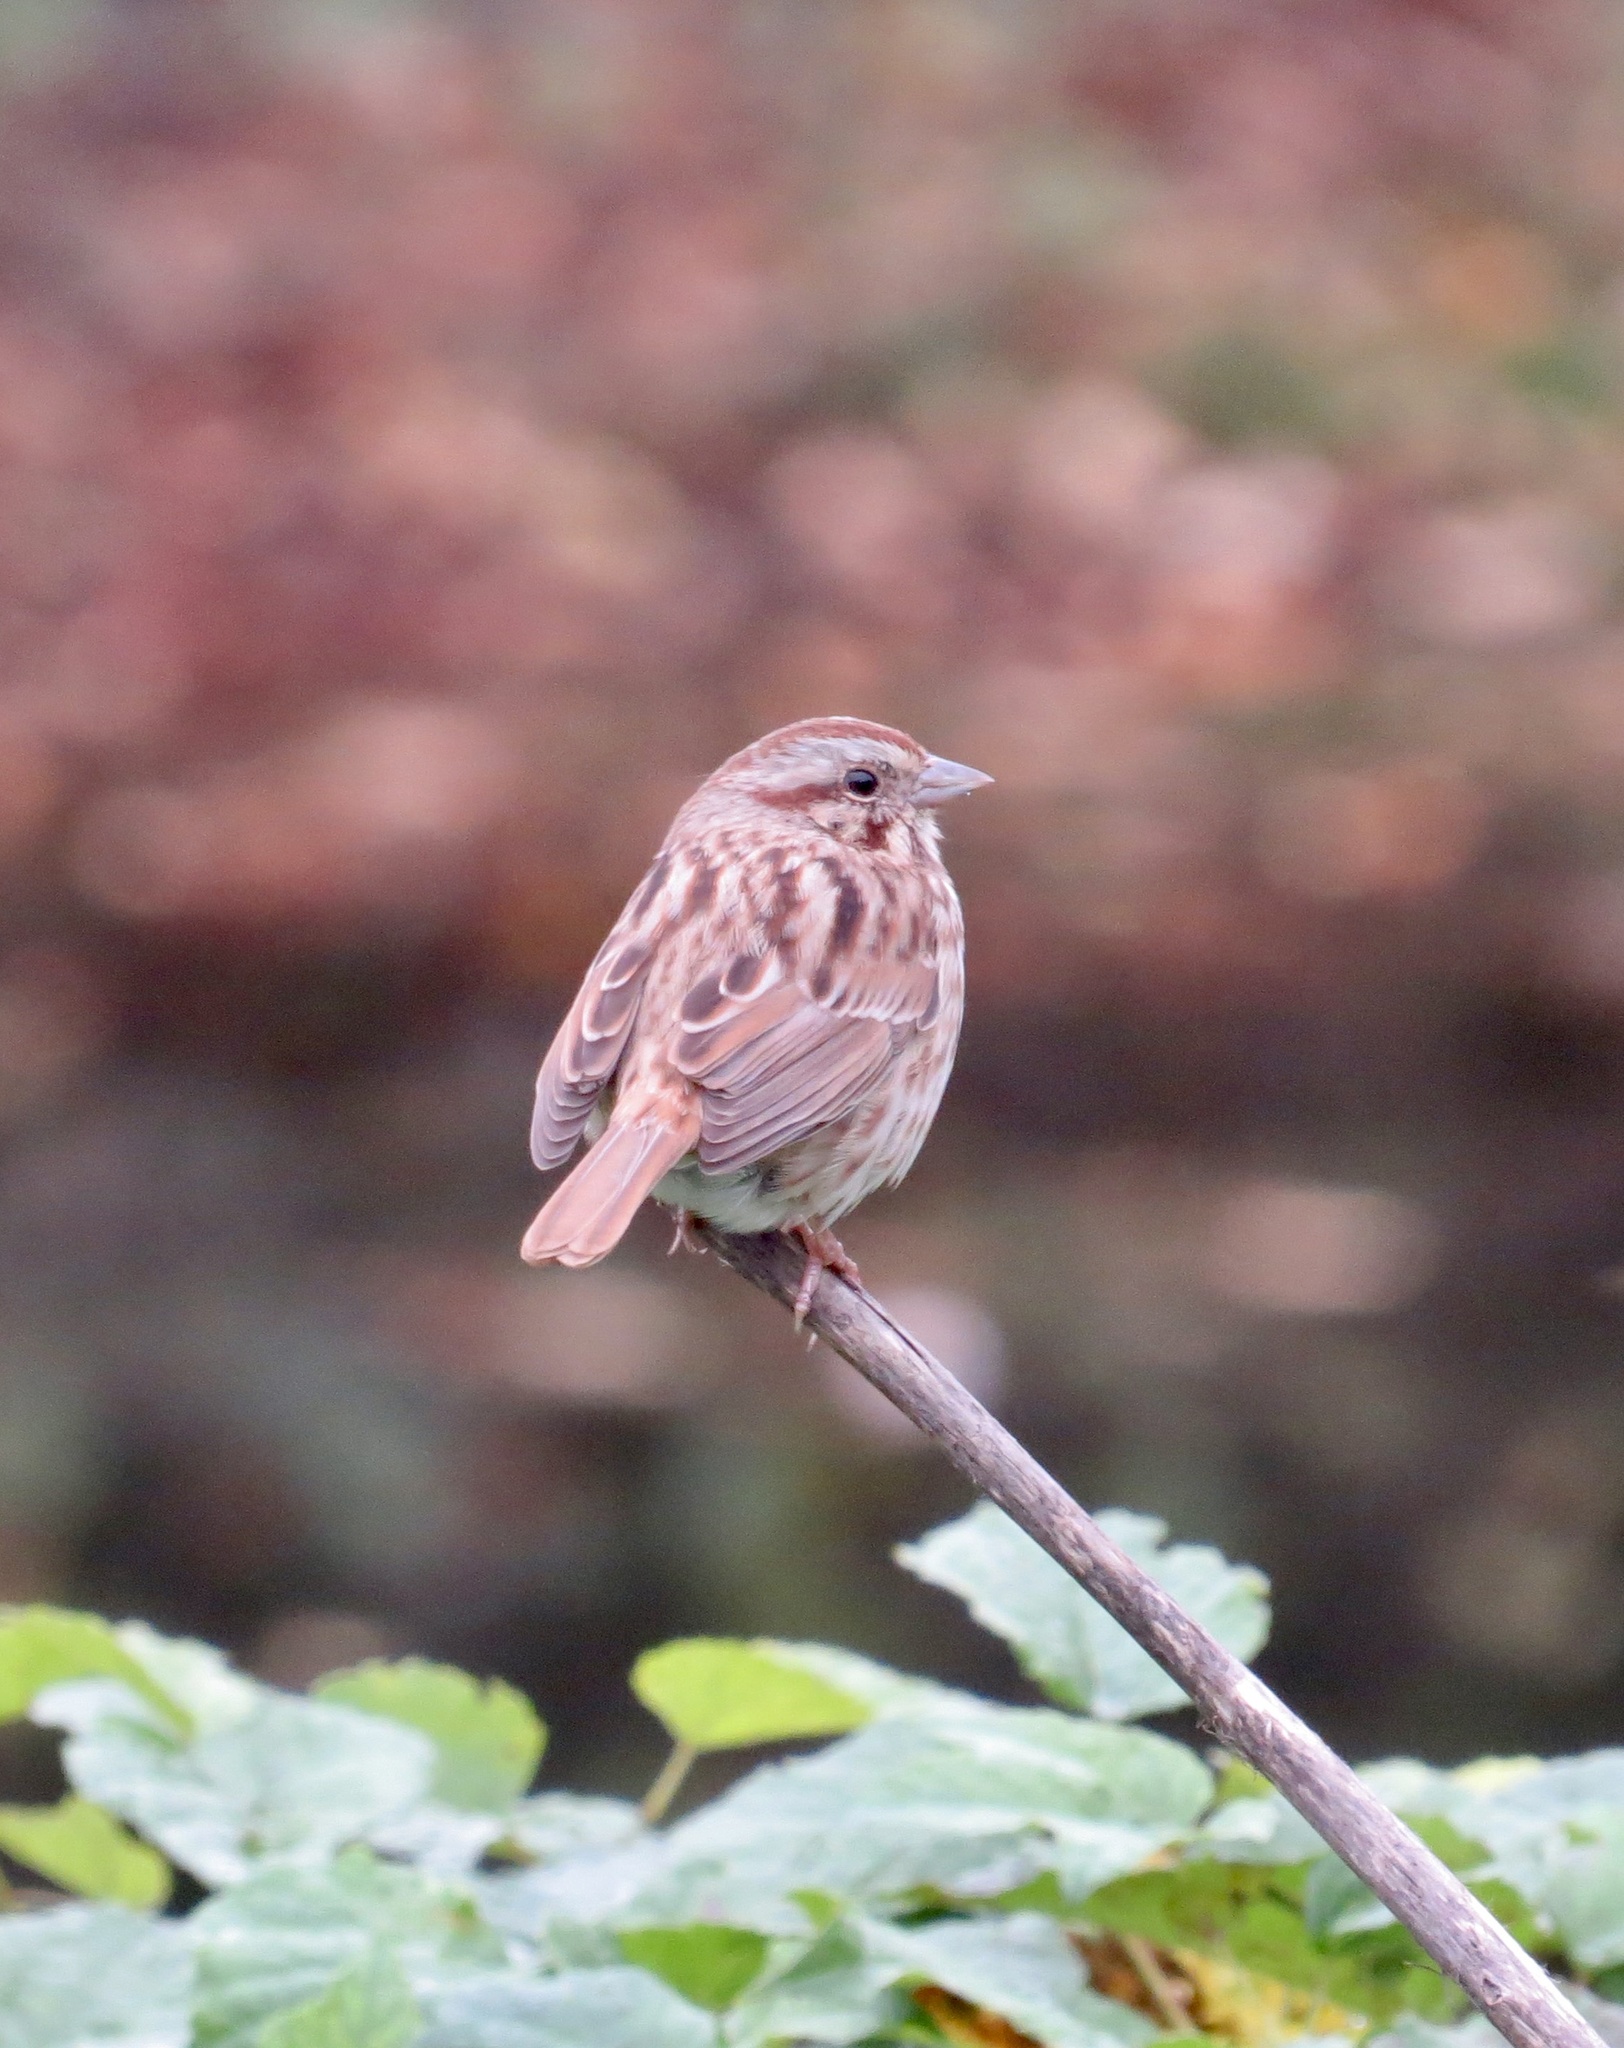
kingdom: Animalia
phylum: Chordata
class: Aves
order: Passeriformes
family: Passerellidae
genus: Melospiza
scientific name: Melospiza melodia
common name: Song sparrow
